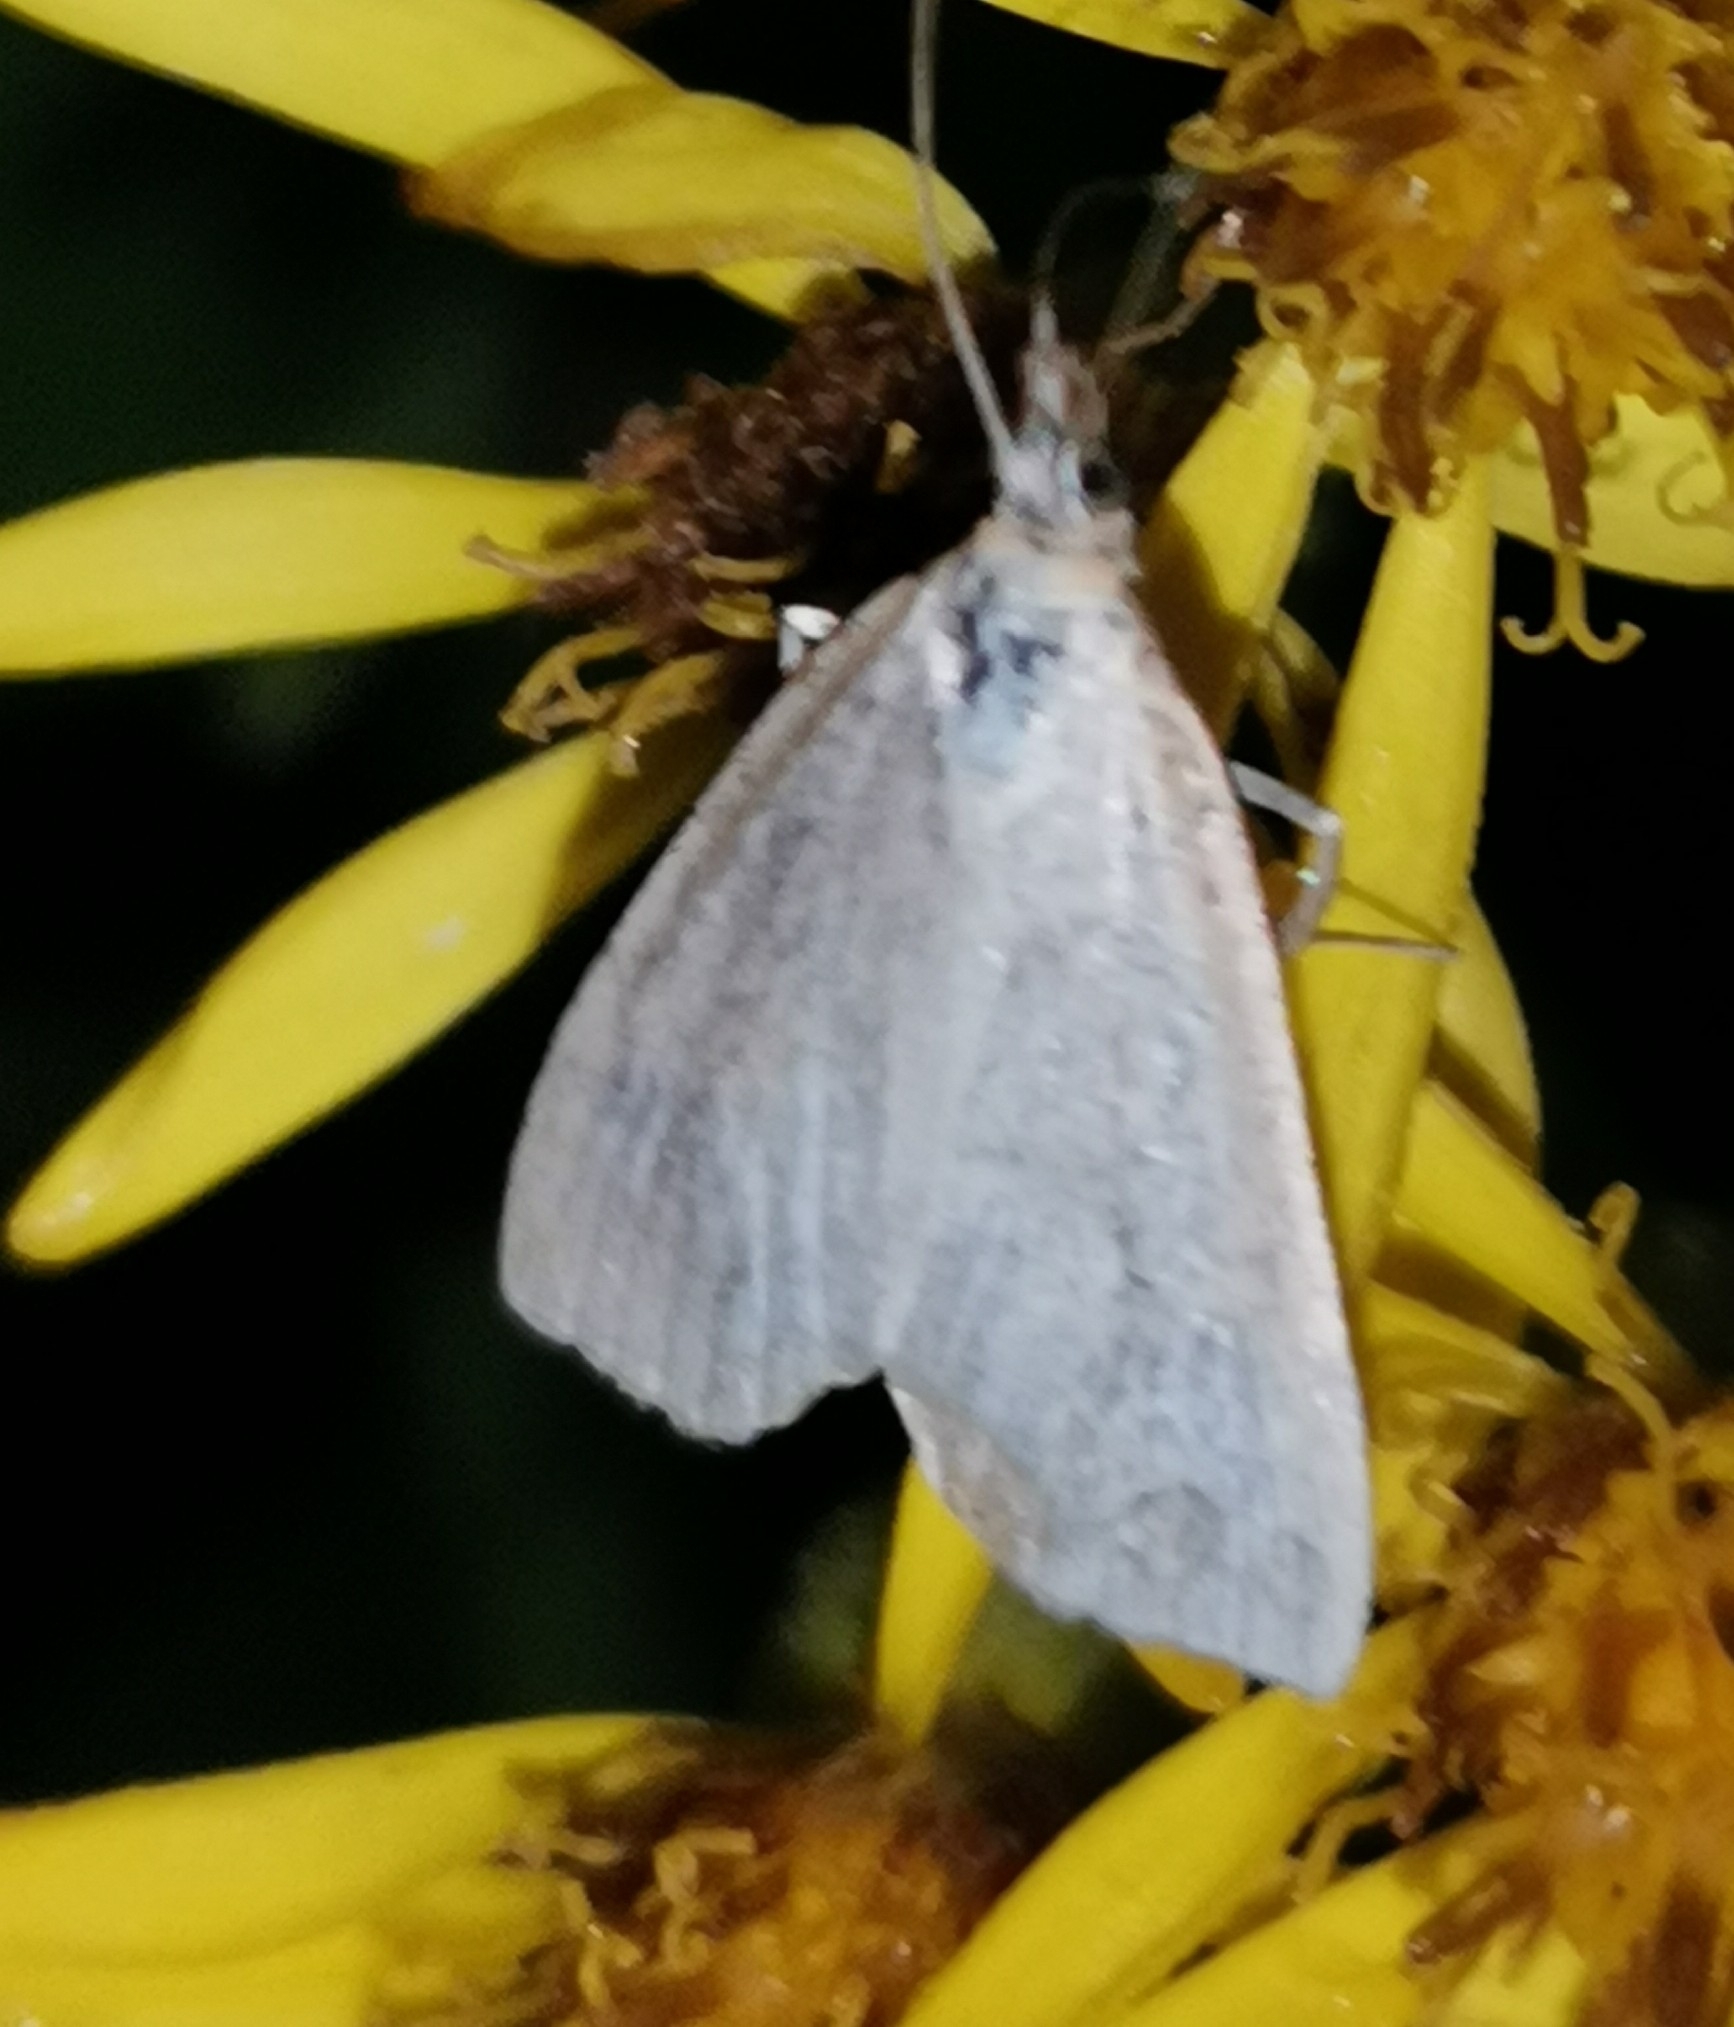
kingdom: Animalia
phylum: Arthropoda
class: Insecta
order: Lepidoptera
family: Crambidae
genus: Udea
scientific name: Udea lutealis
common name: Pale straw pearl
